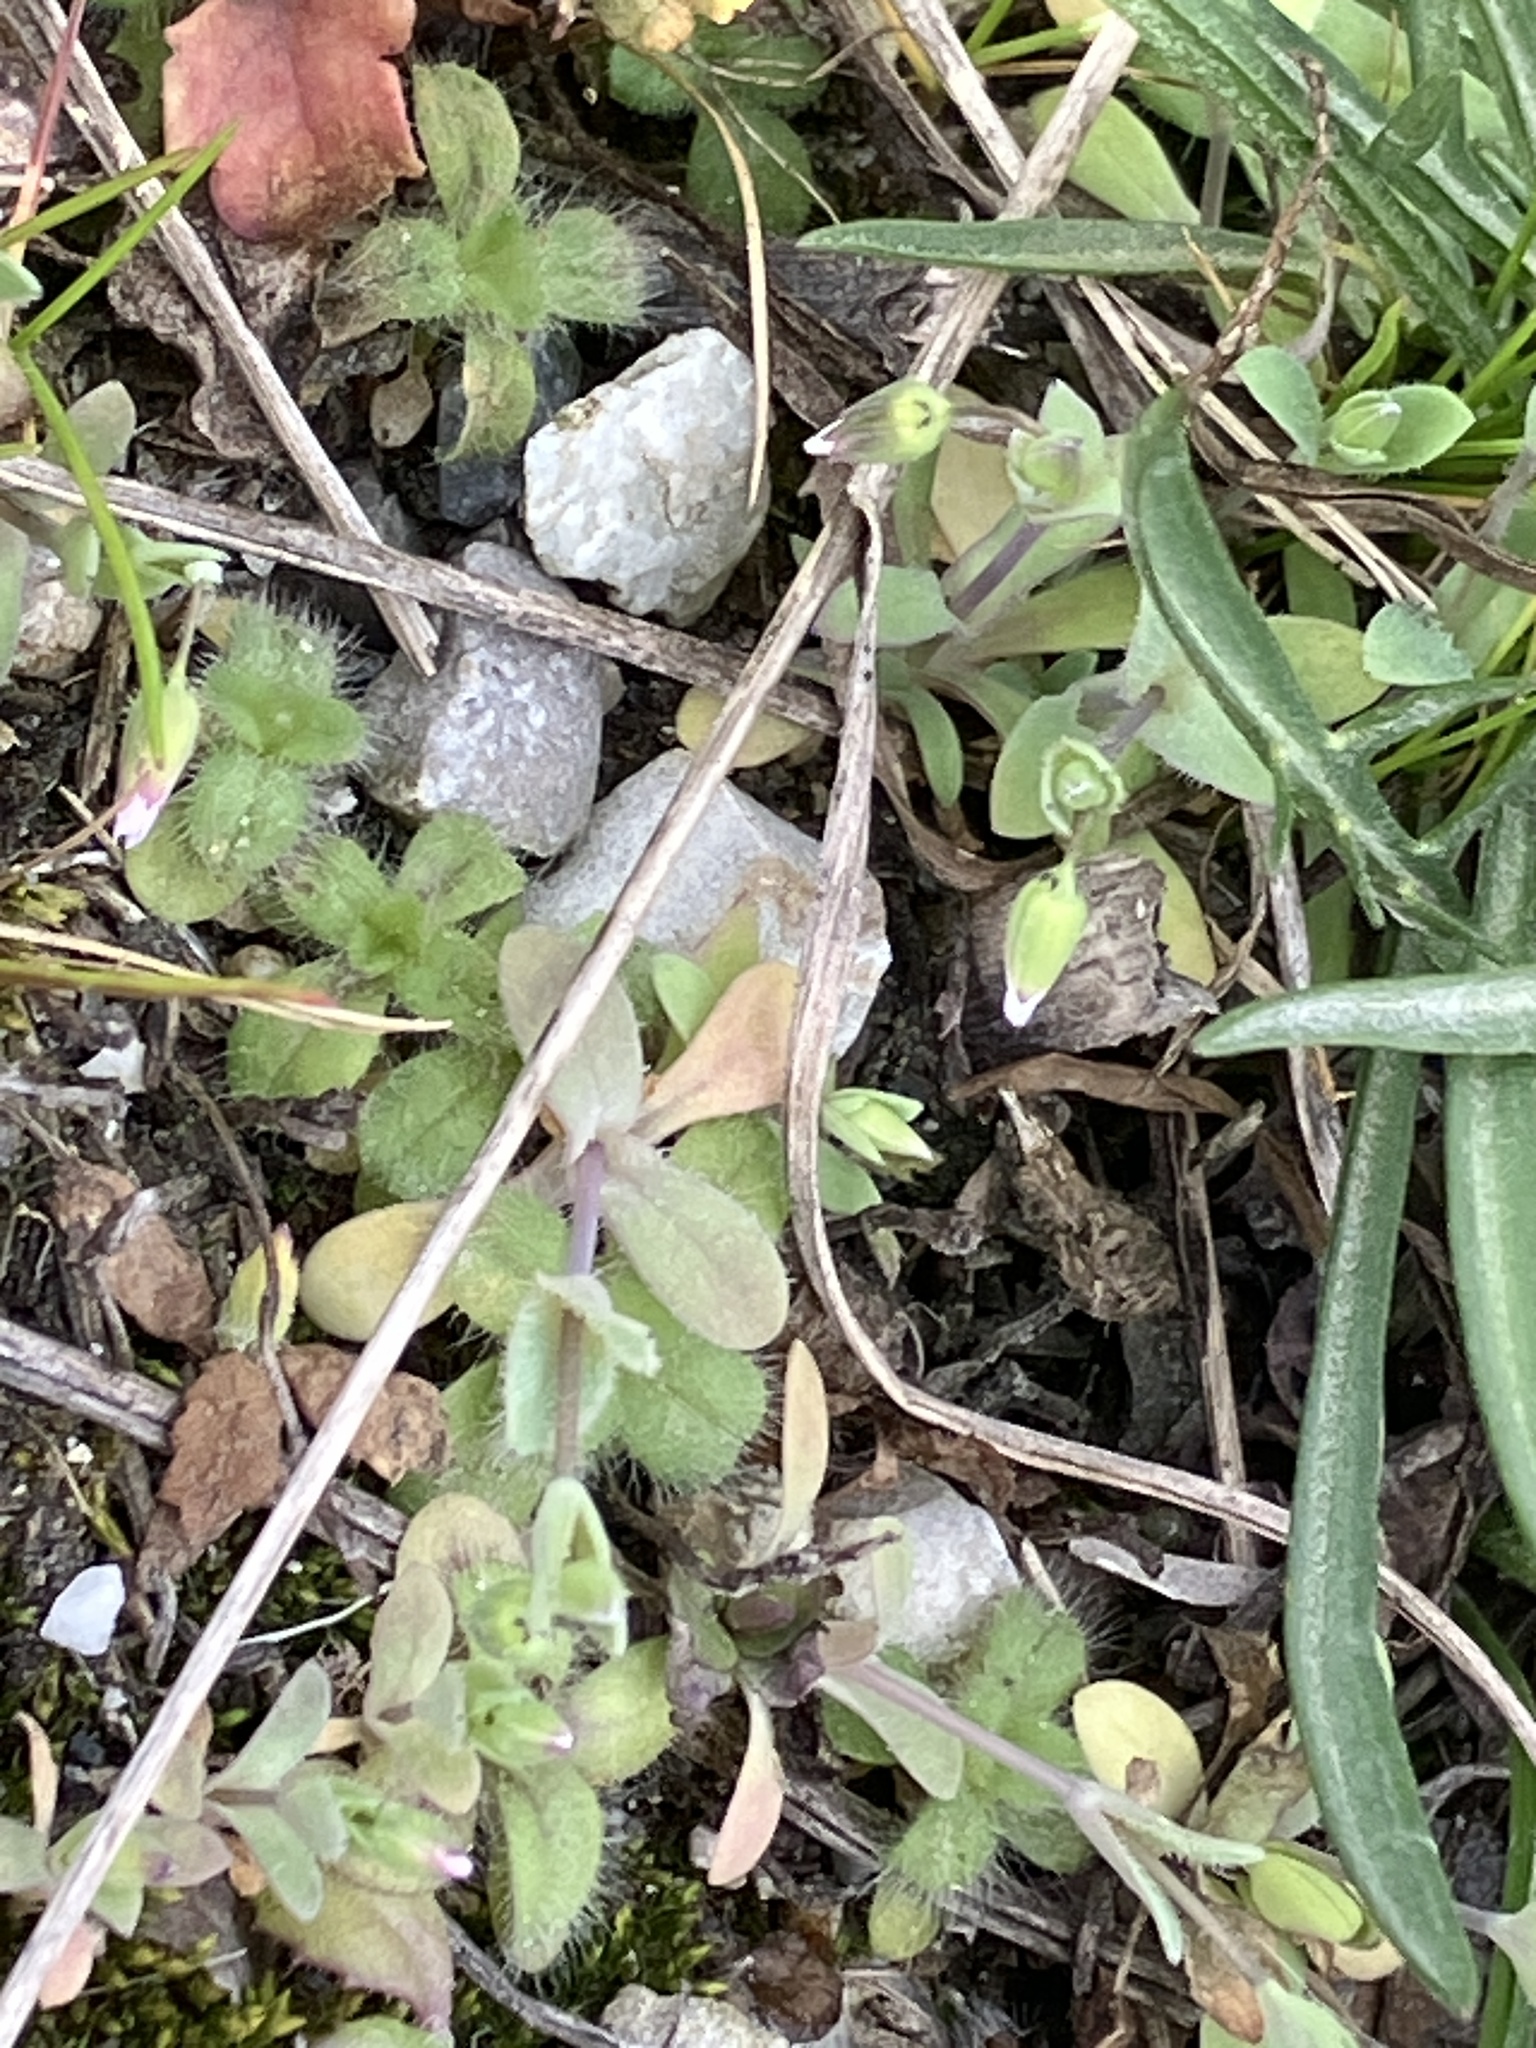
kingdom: Plantae
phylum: Tracheophyta
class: Magnoliopsida
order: Caryophyllales
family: Caryophyllaceae
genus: Holosteum
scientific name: Holosteum umbellatum
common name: Jagged chickweed
